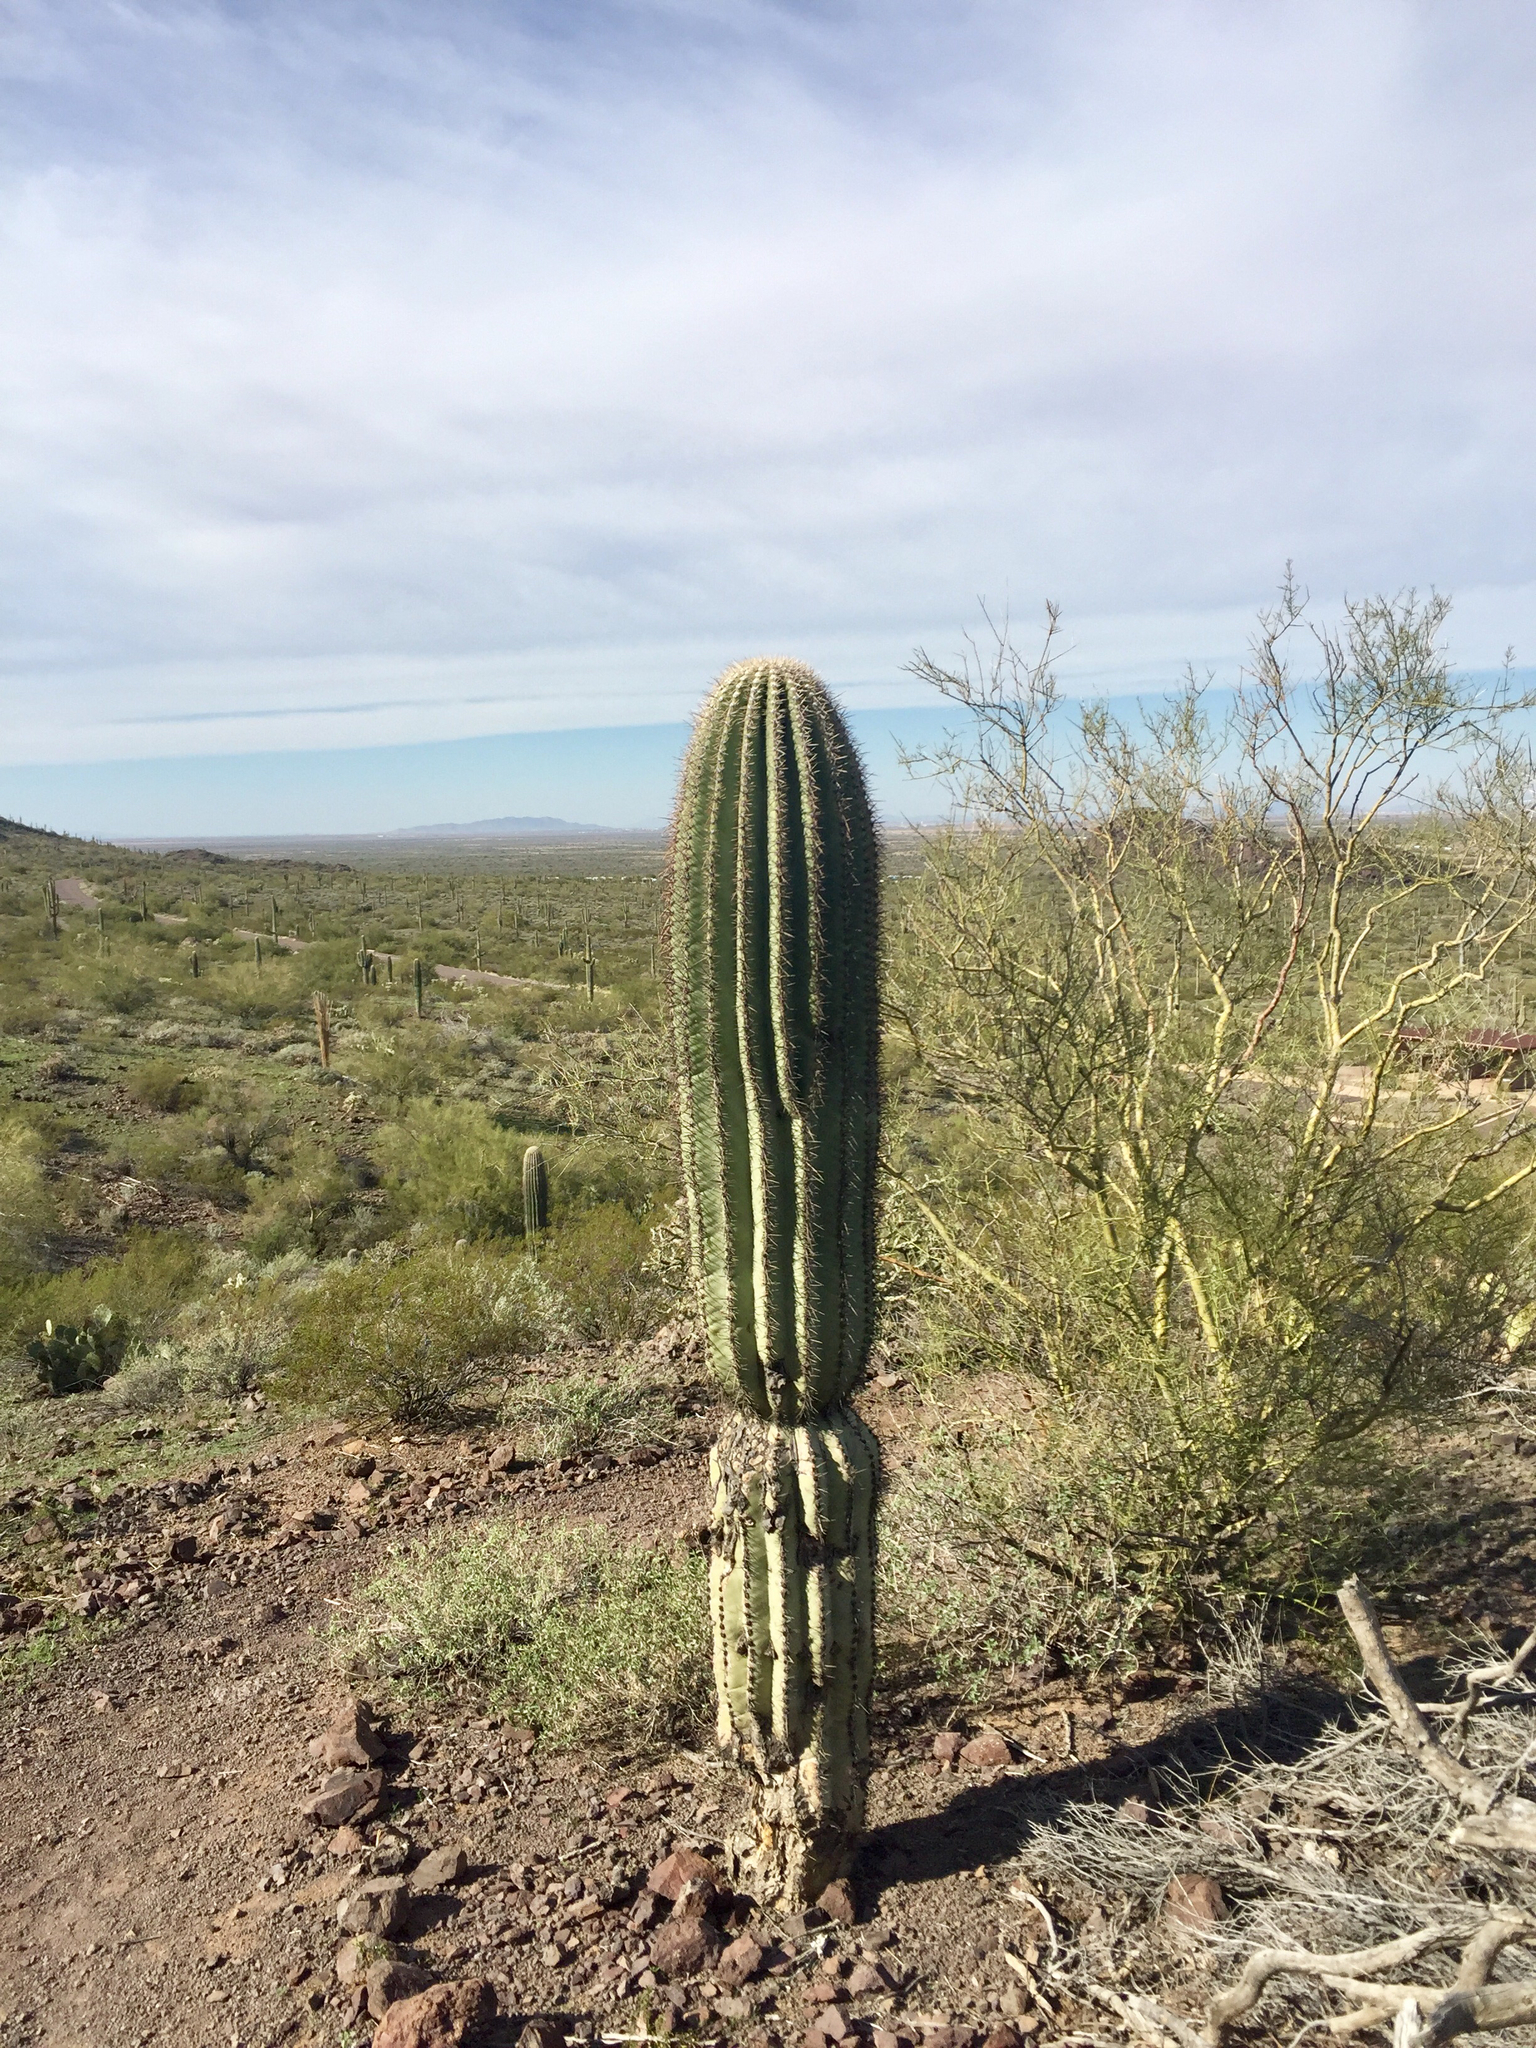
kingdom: Plantae
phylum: Tracheophyta
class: Magnoliopsida
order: Caryophyllales
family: Cactaceae
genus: Carnegiea
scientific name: Carnegiea gigantea
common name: Saguaro
